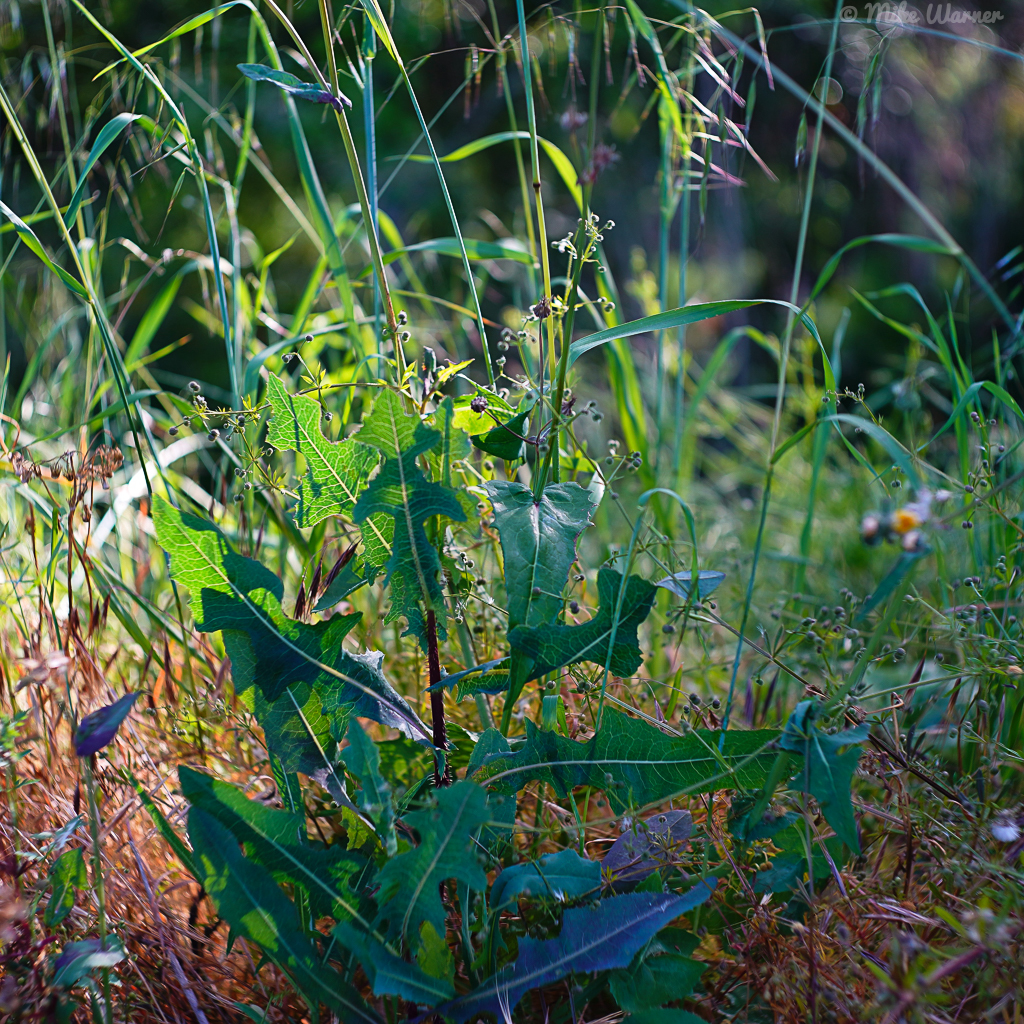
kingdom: Plantae
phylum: Tracheophyta
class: Magnoliopsida
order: Asterales
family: Asteraceae
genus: Lactuca
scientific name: Lactuca serriola
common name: Prickly lettuce
